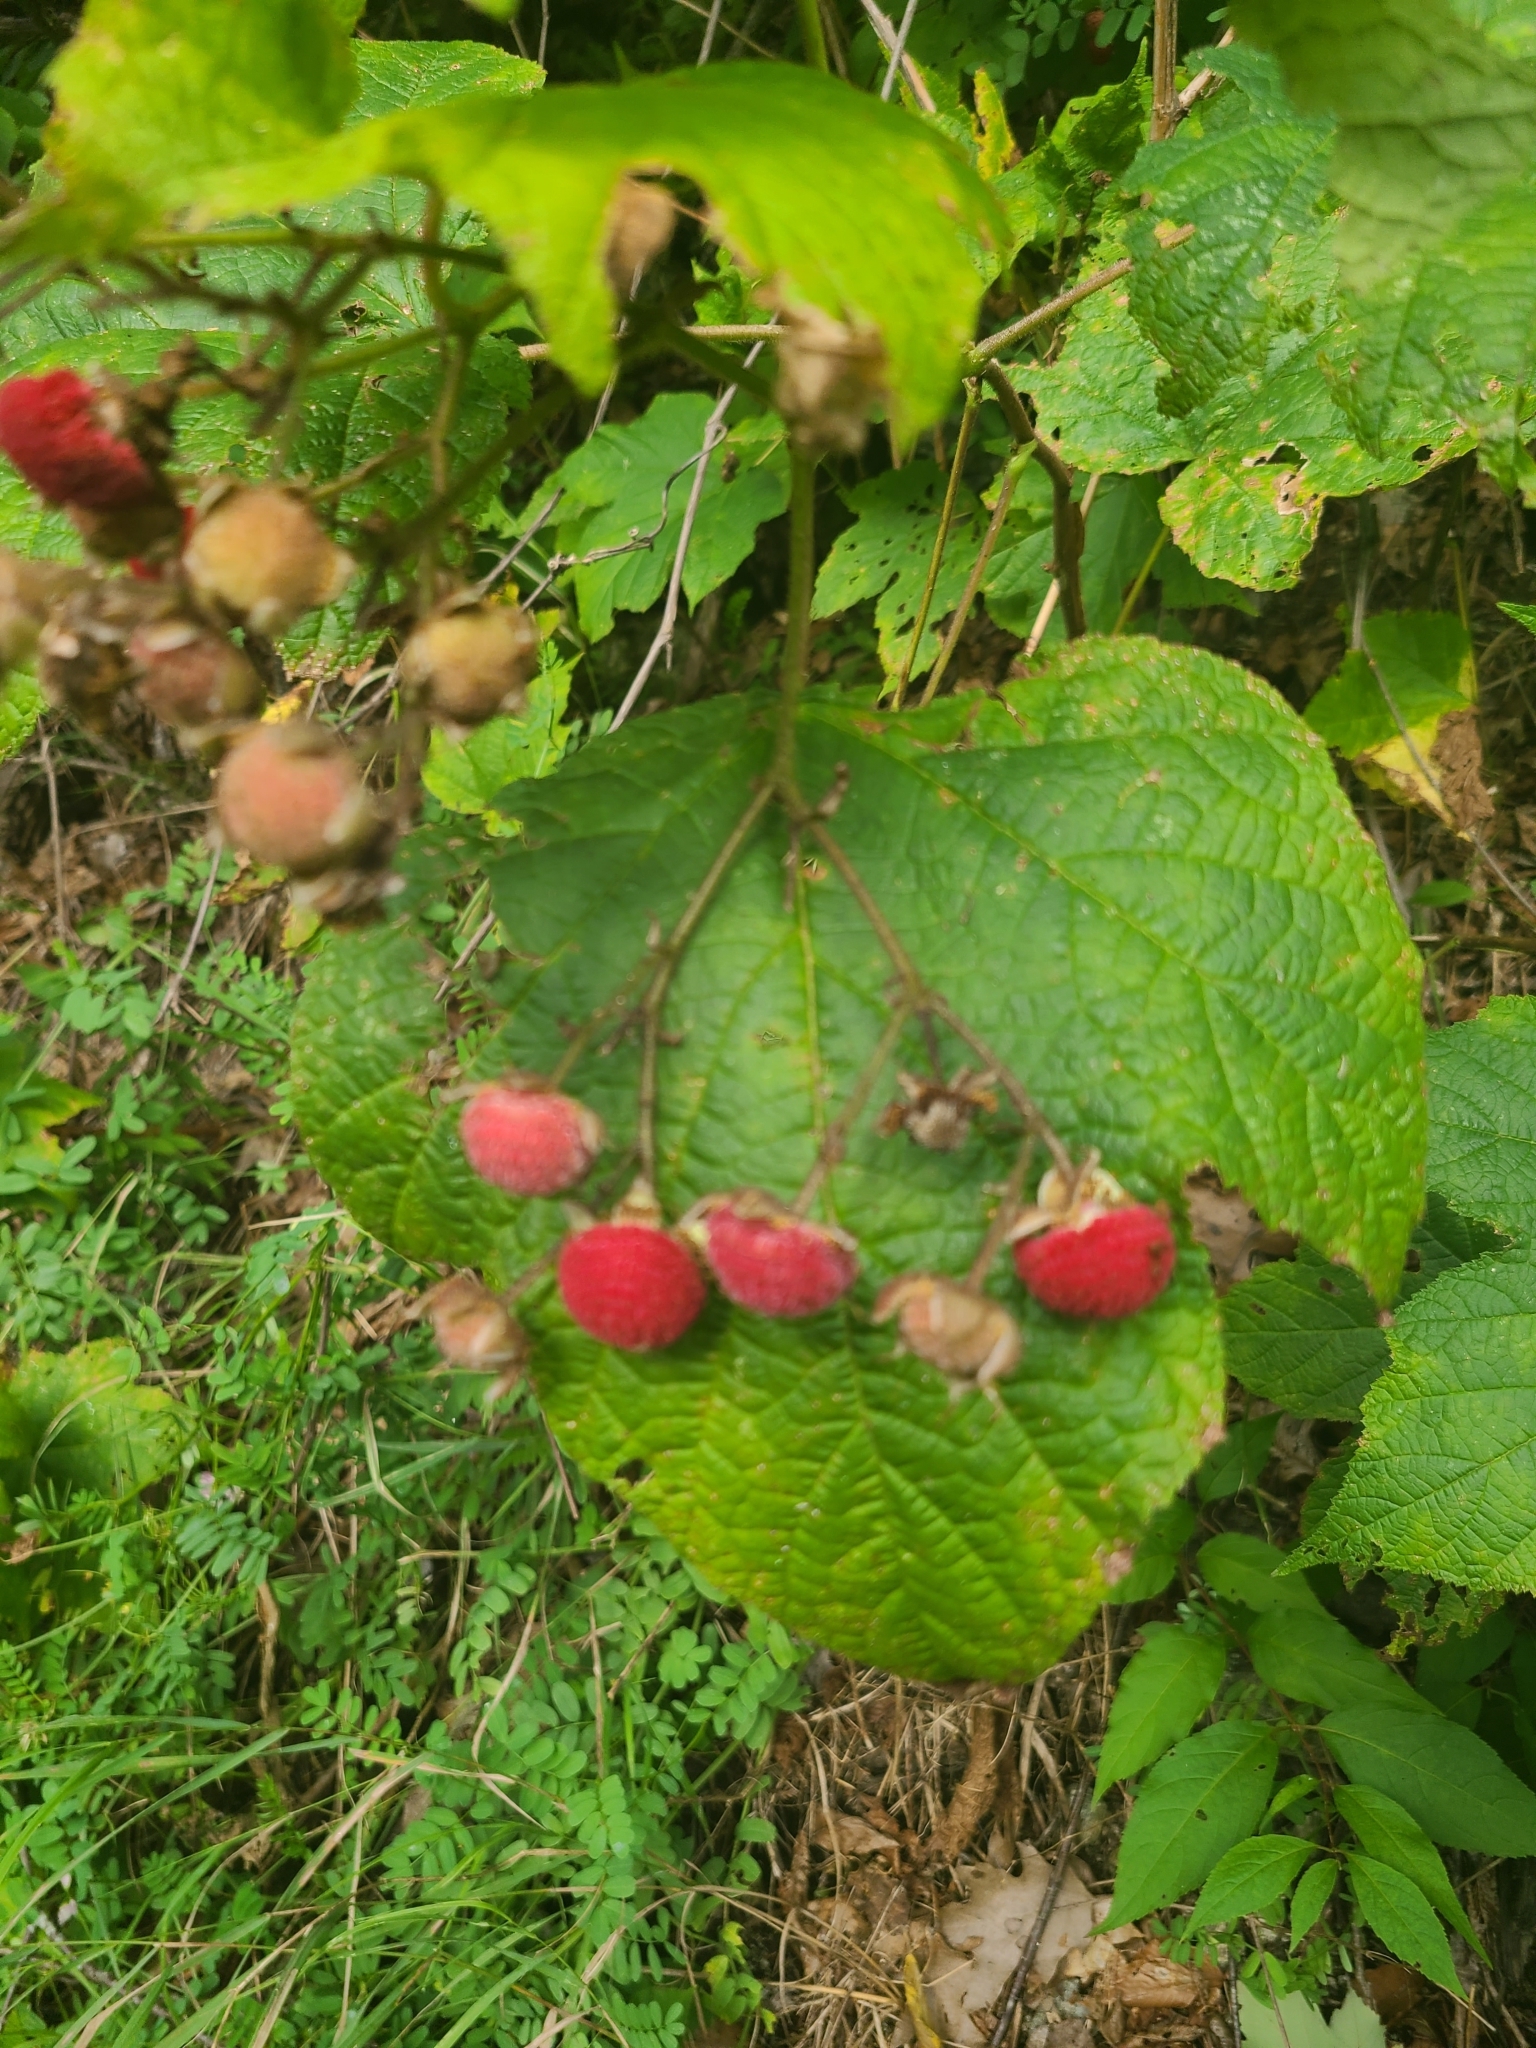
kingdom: Plantae
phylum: Tracheophyta
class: Magnoliopsida
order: Rosales
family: Rosaceae
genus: Rubus
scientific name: Rubus odoratus
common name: Purple-flowered raspberry
